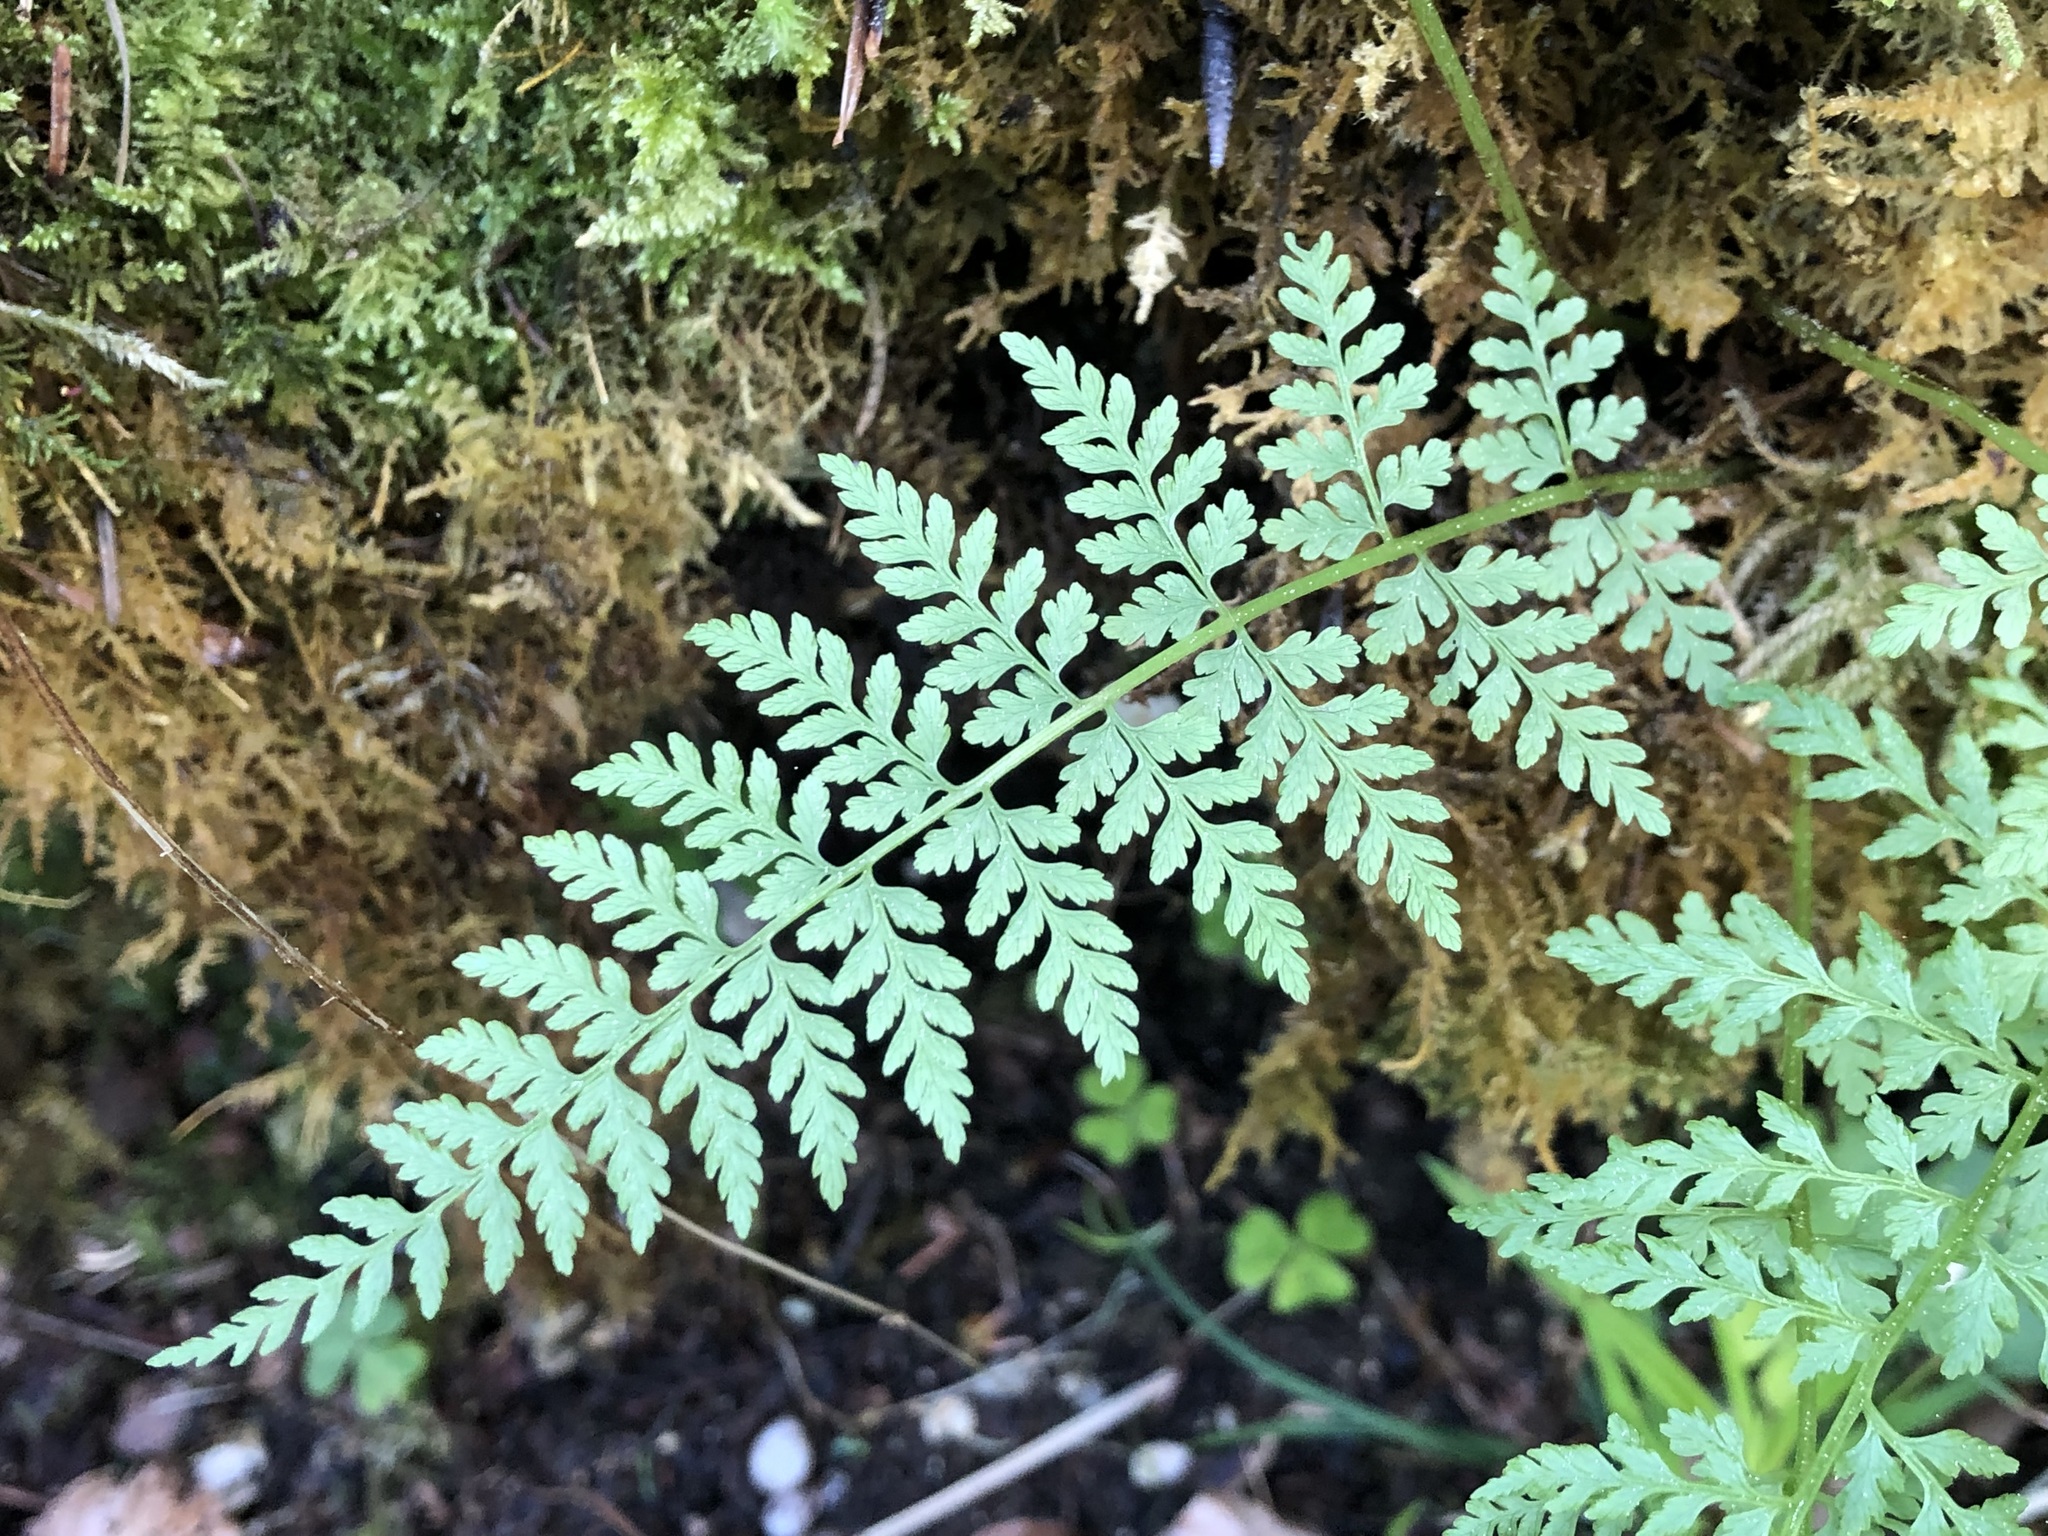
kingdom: Plantae
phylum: Tracheophyta
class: Polypodiopsida
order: Polypodiales
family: Cystopteridaceae
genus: Cystopteris
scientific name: Cystopteris fragilis
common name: Brittle bladder fern
